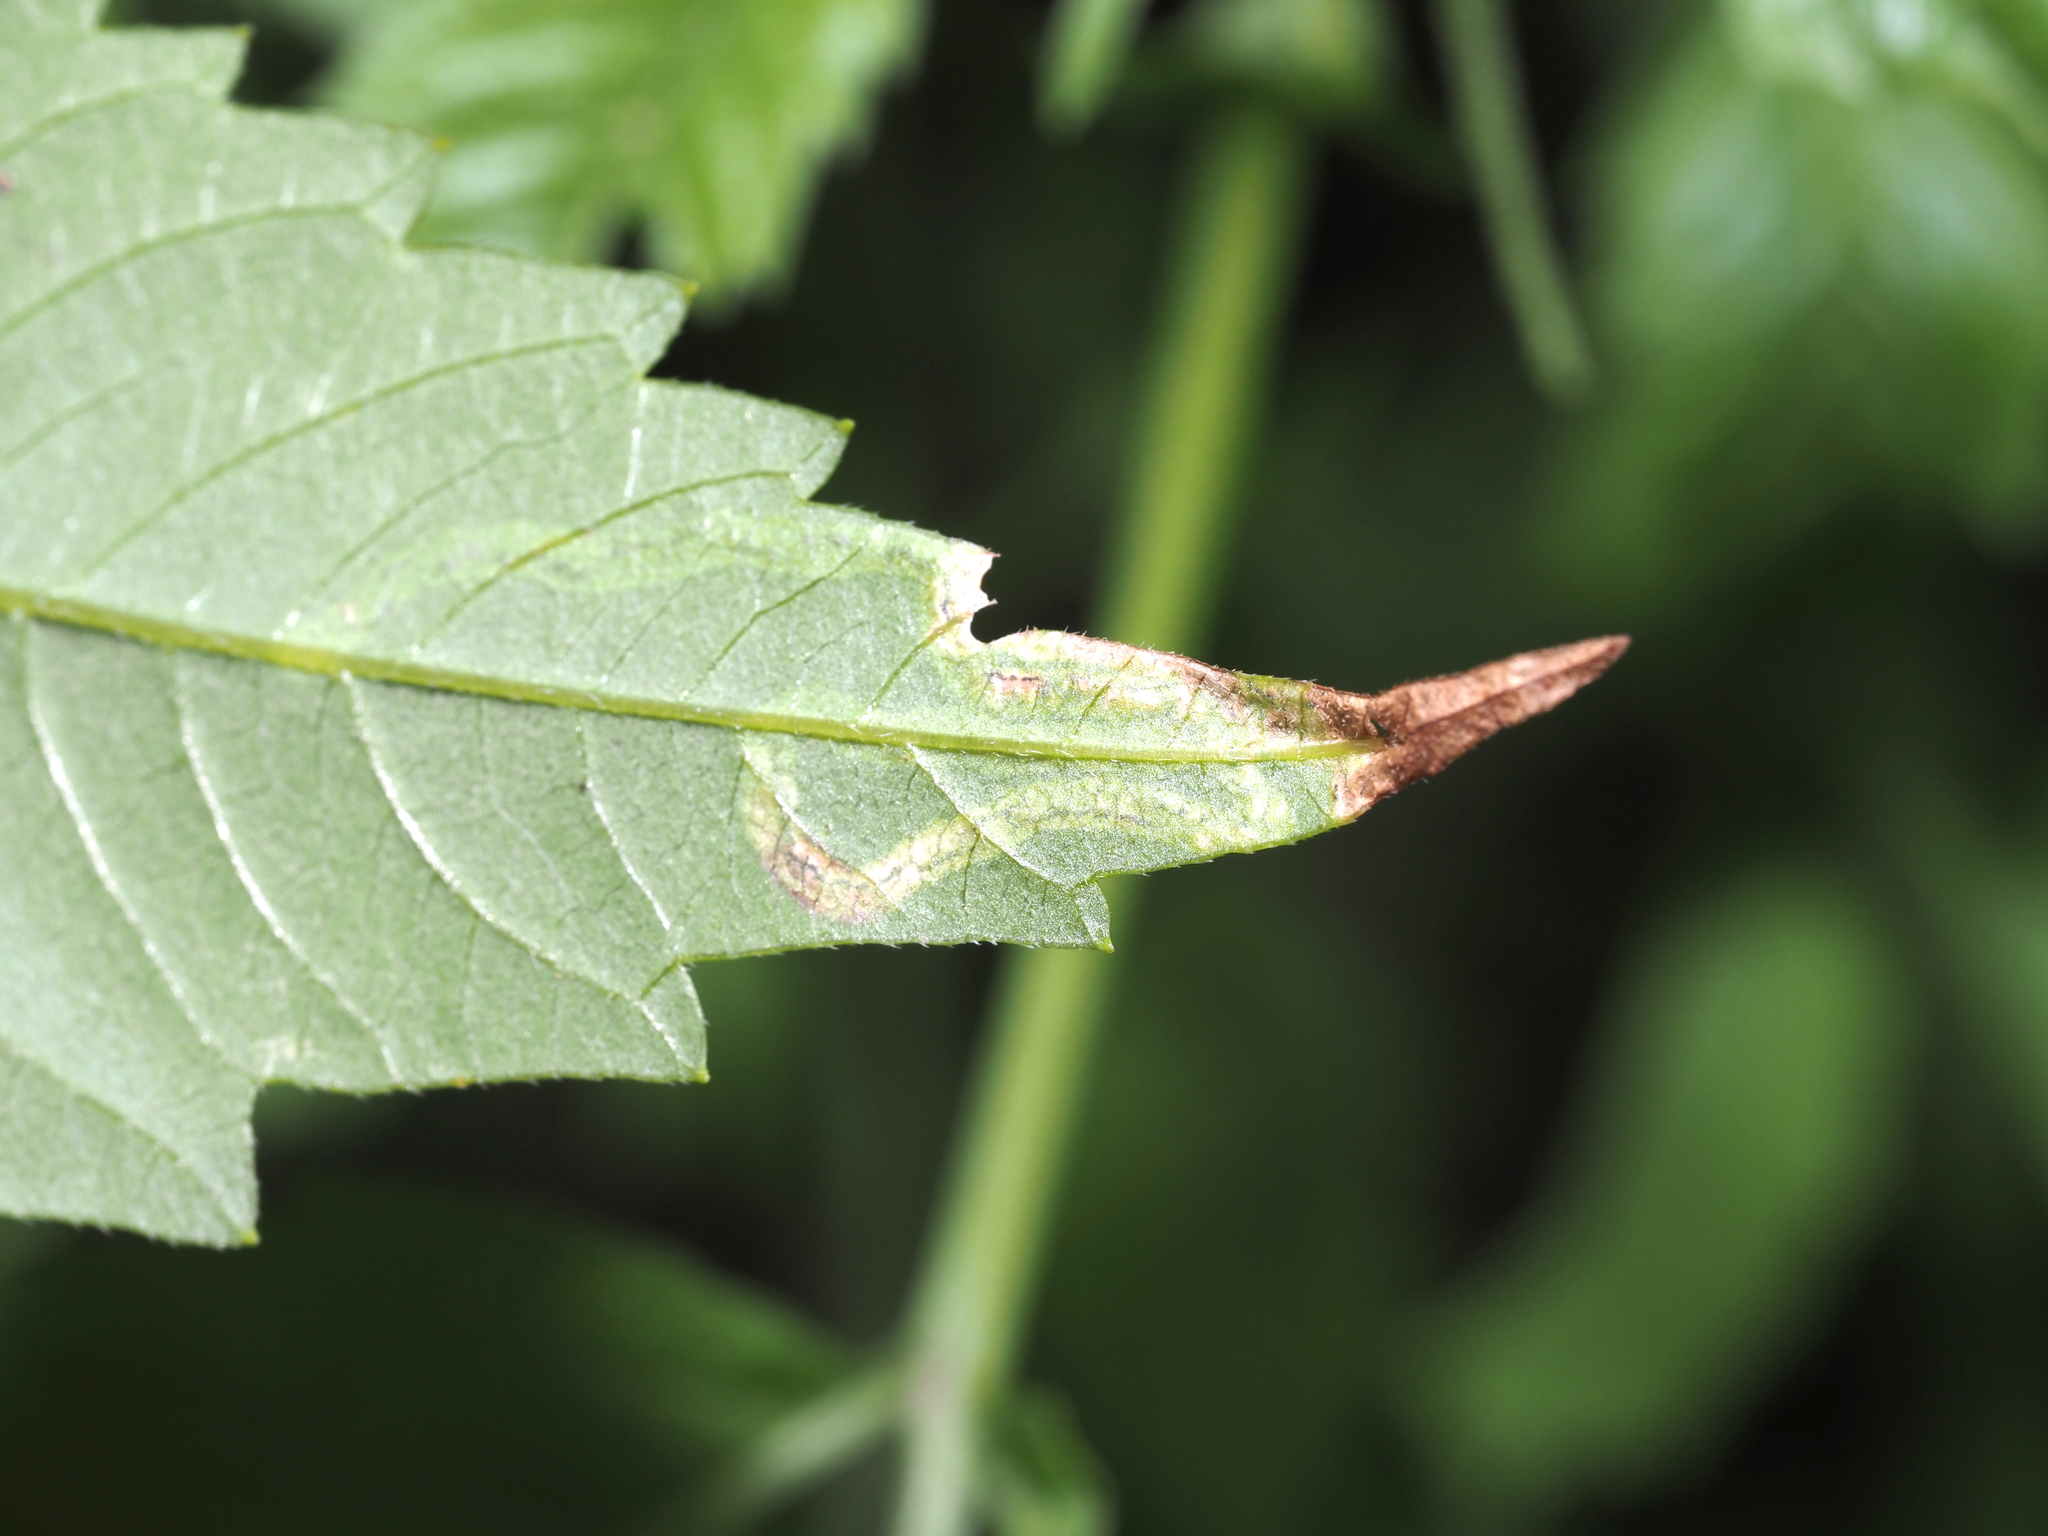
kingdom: Animalia
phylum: Arthropoda
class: Insecta
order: Diptera
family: Agromyzidae
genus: Liriomyza
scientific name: Liriomyza carphephori
